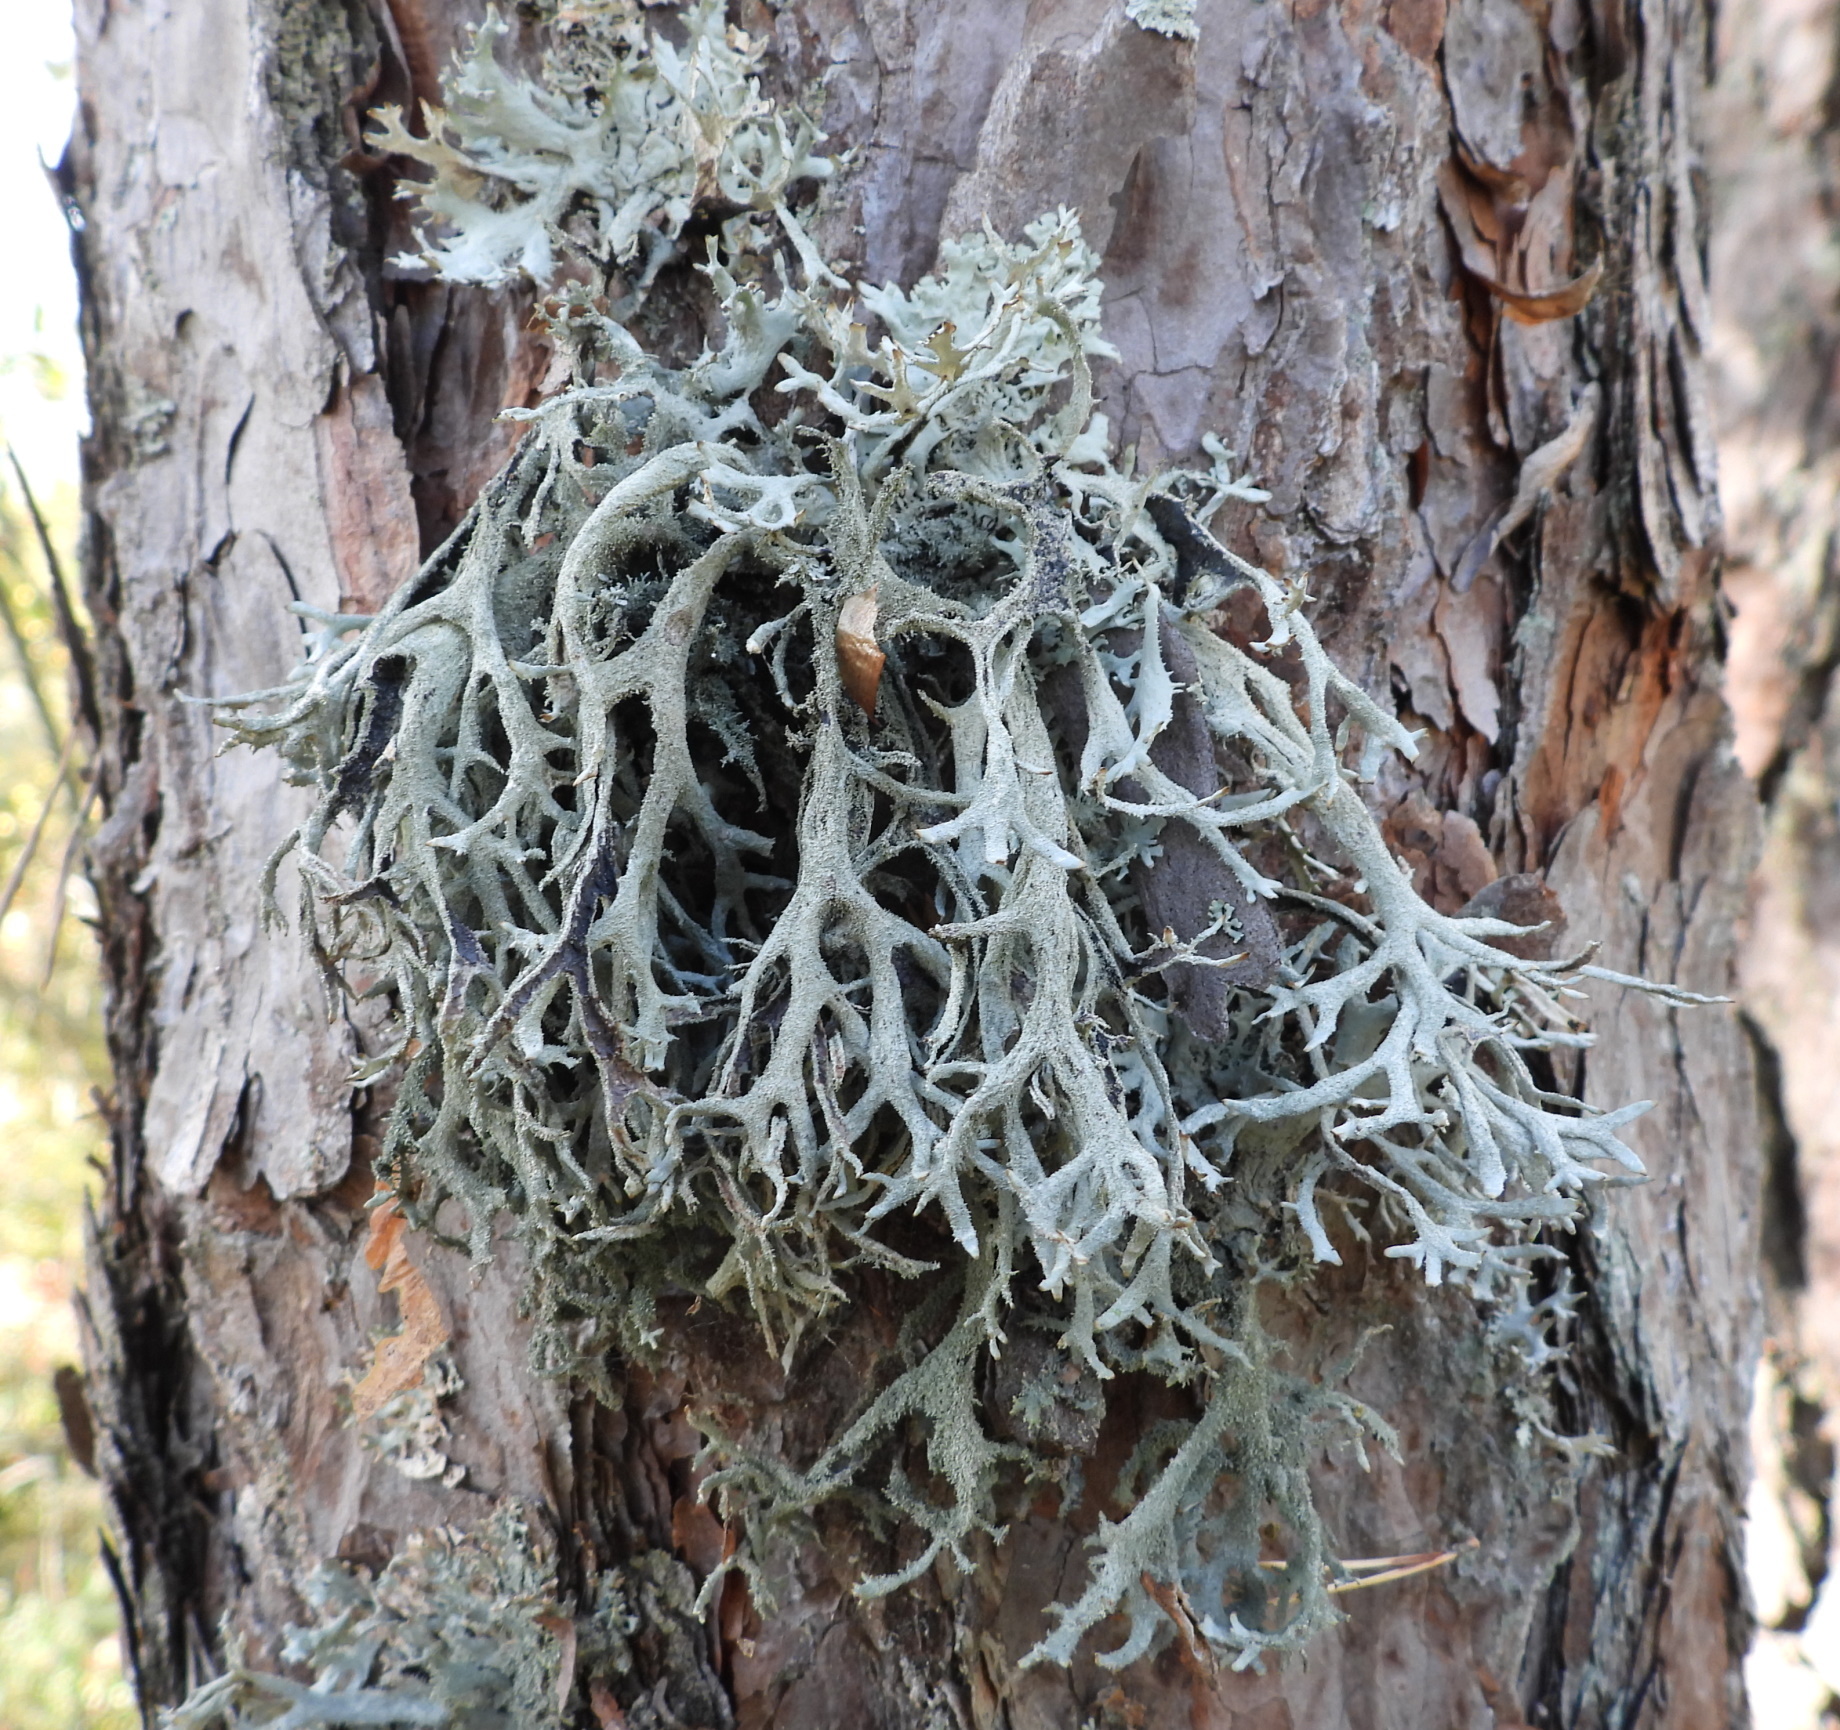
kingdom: Fungi
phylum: Ascomycota
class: Lecanoromycetes
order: Lecanorales
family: Parmeliaceae
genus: Pseudevernia
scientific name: Pseudevernia furfuracea
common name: Tree moss
